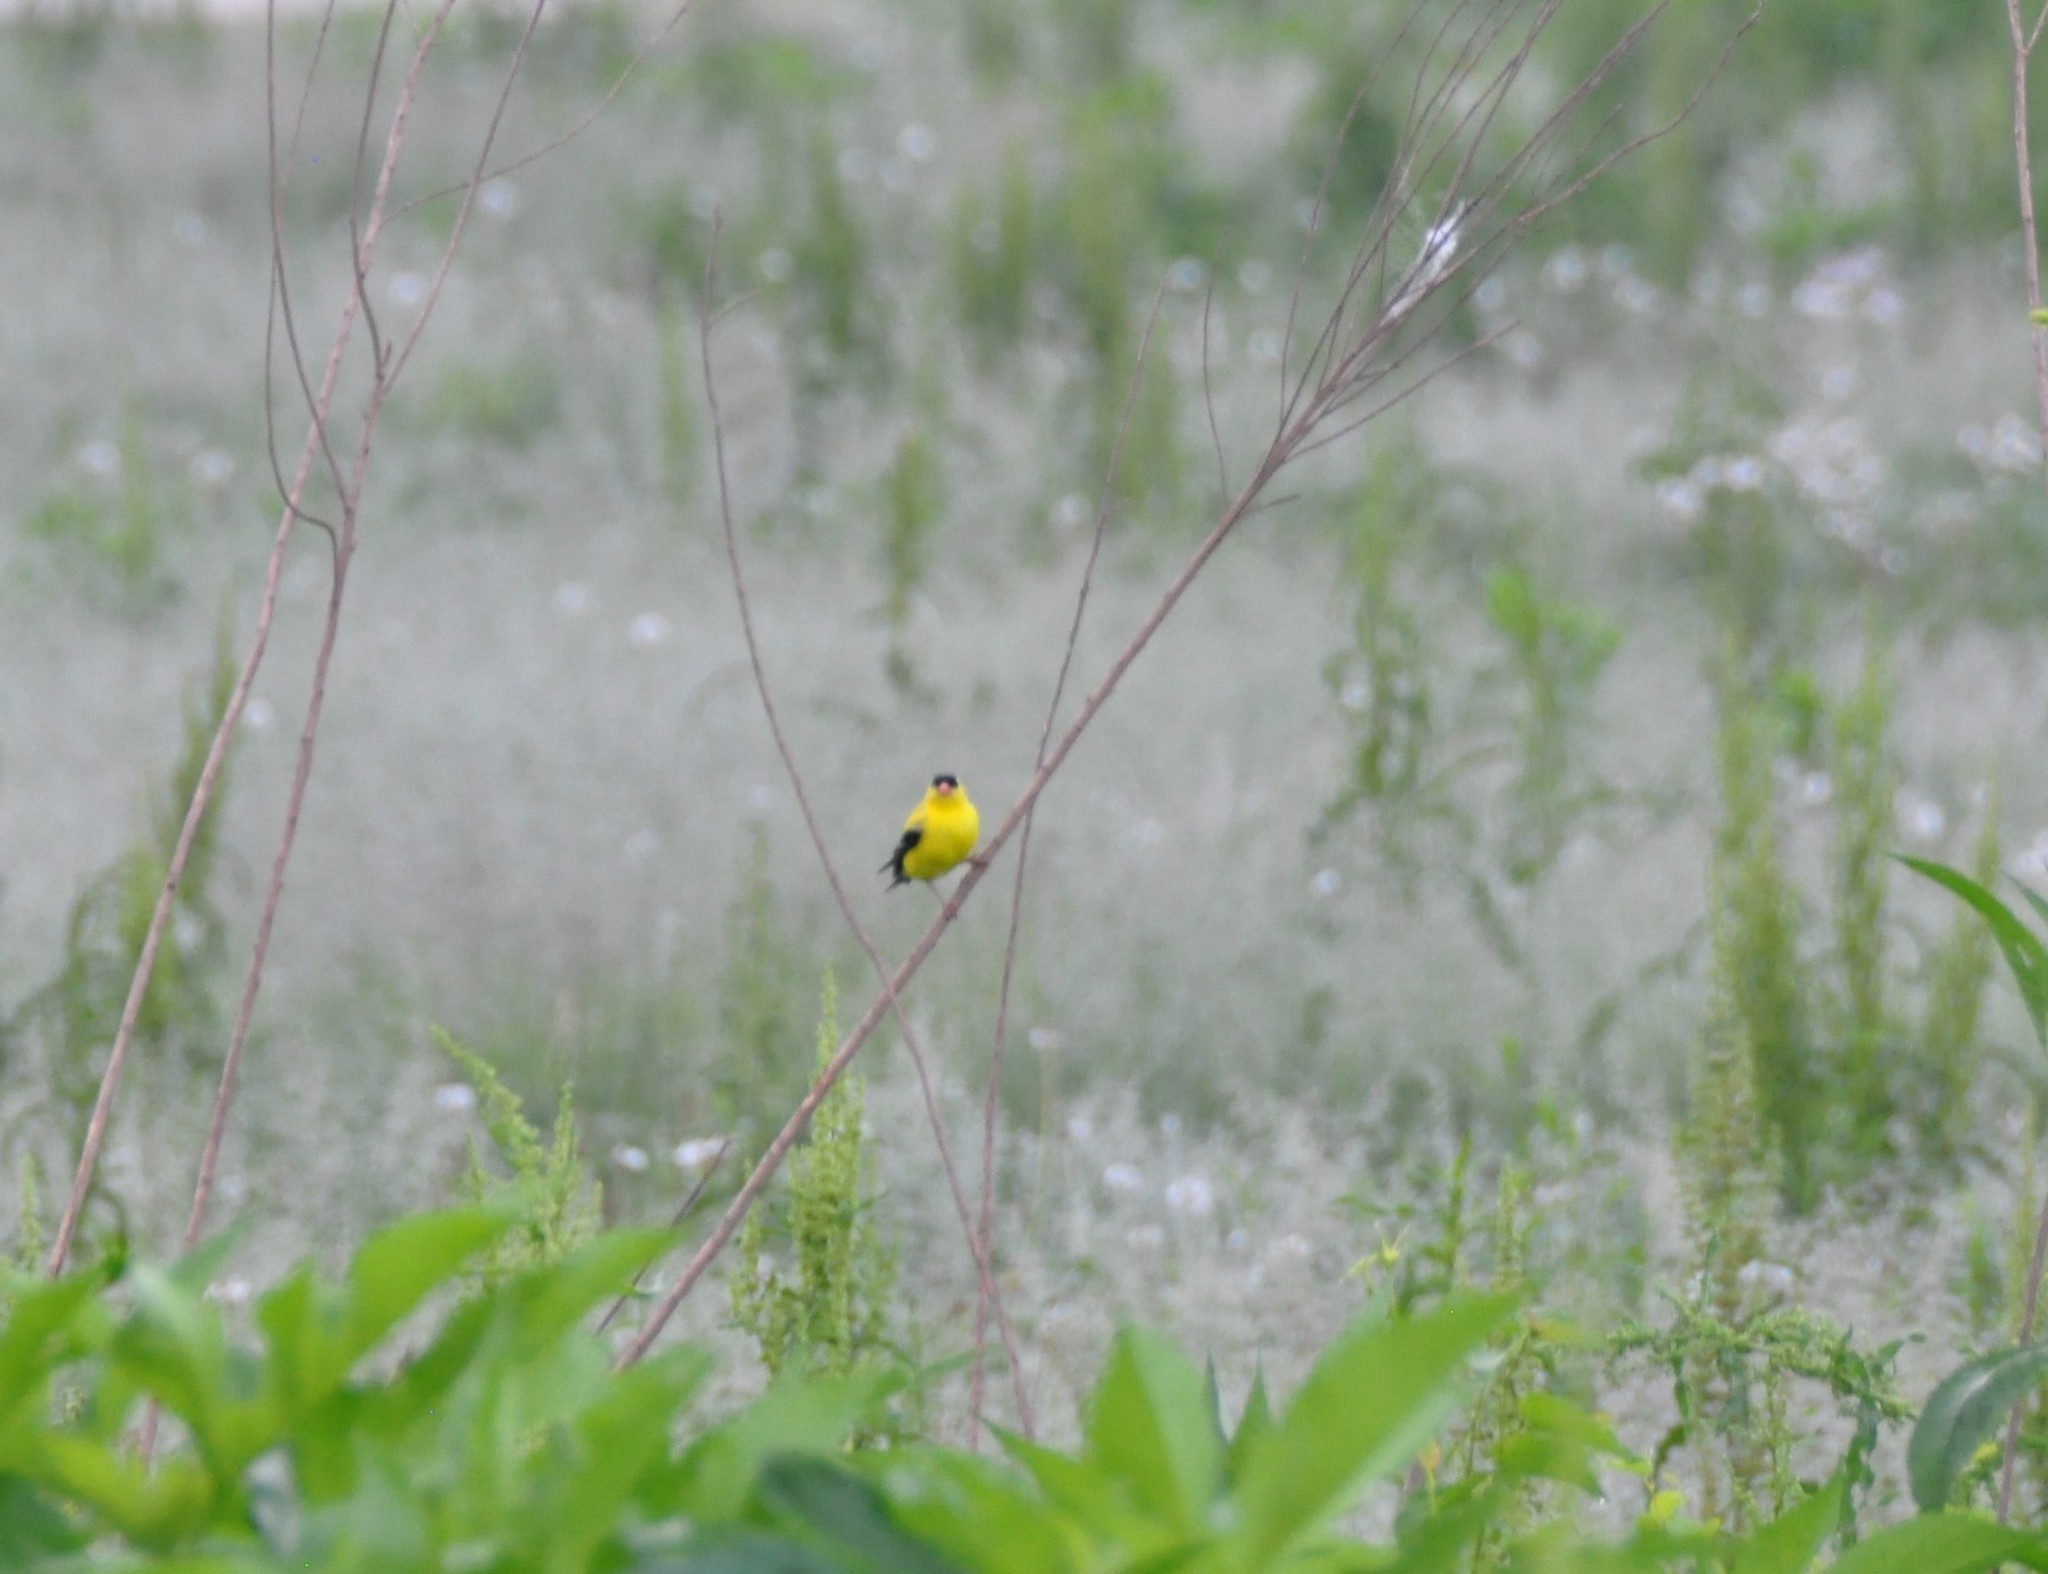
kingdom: Animalia
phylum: Chordata
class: Aves
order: Passeriformes
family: Fringillidae
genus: Spinus
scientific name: Spinus tristis
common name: American goldfinch
